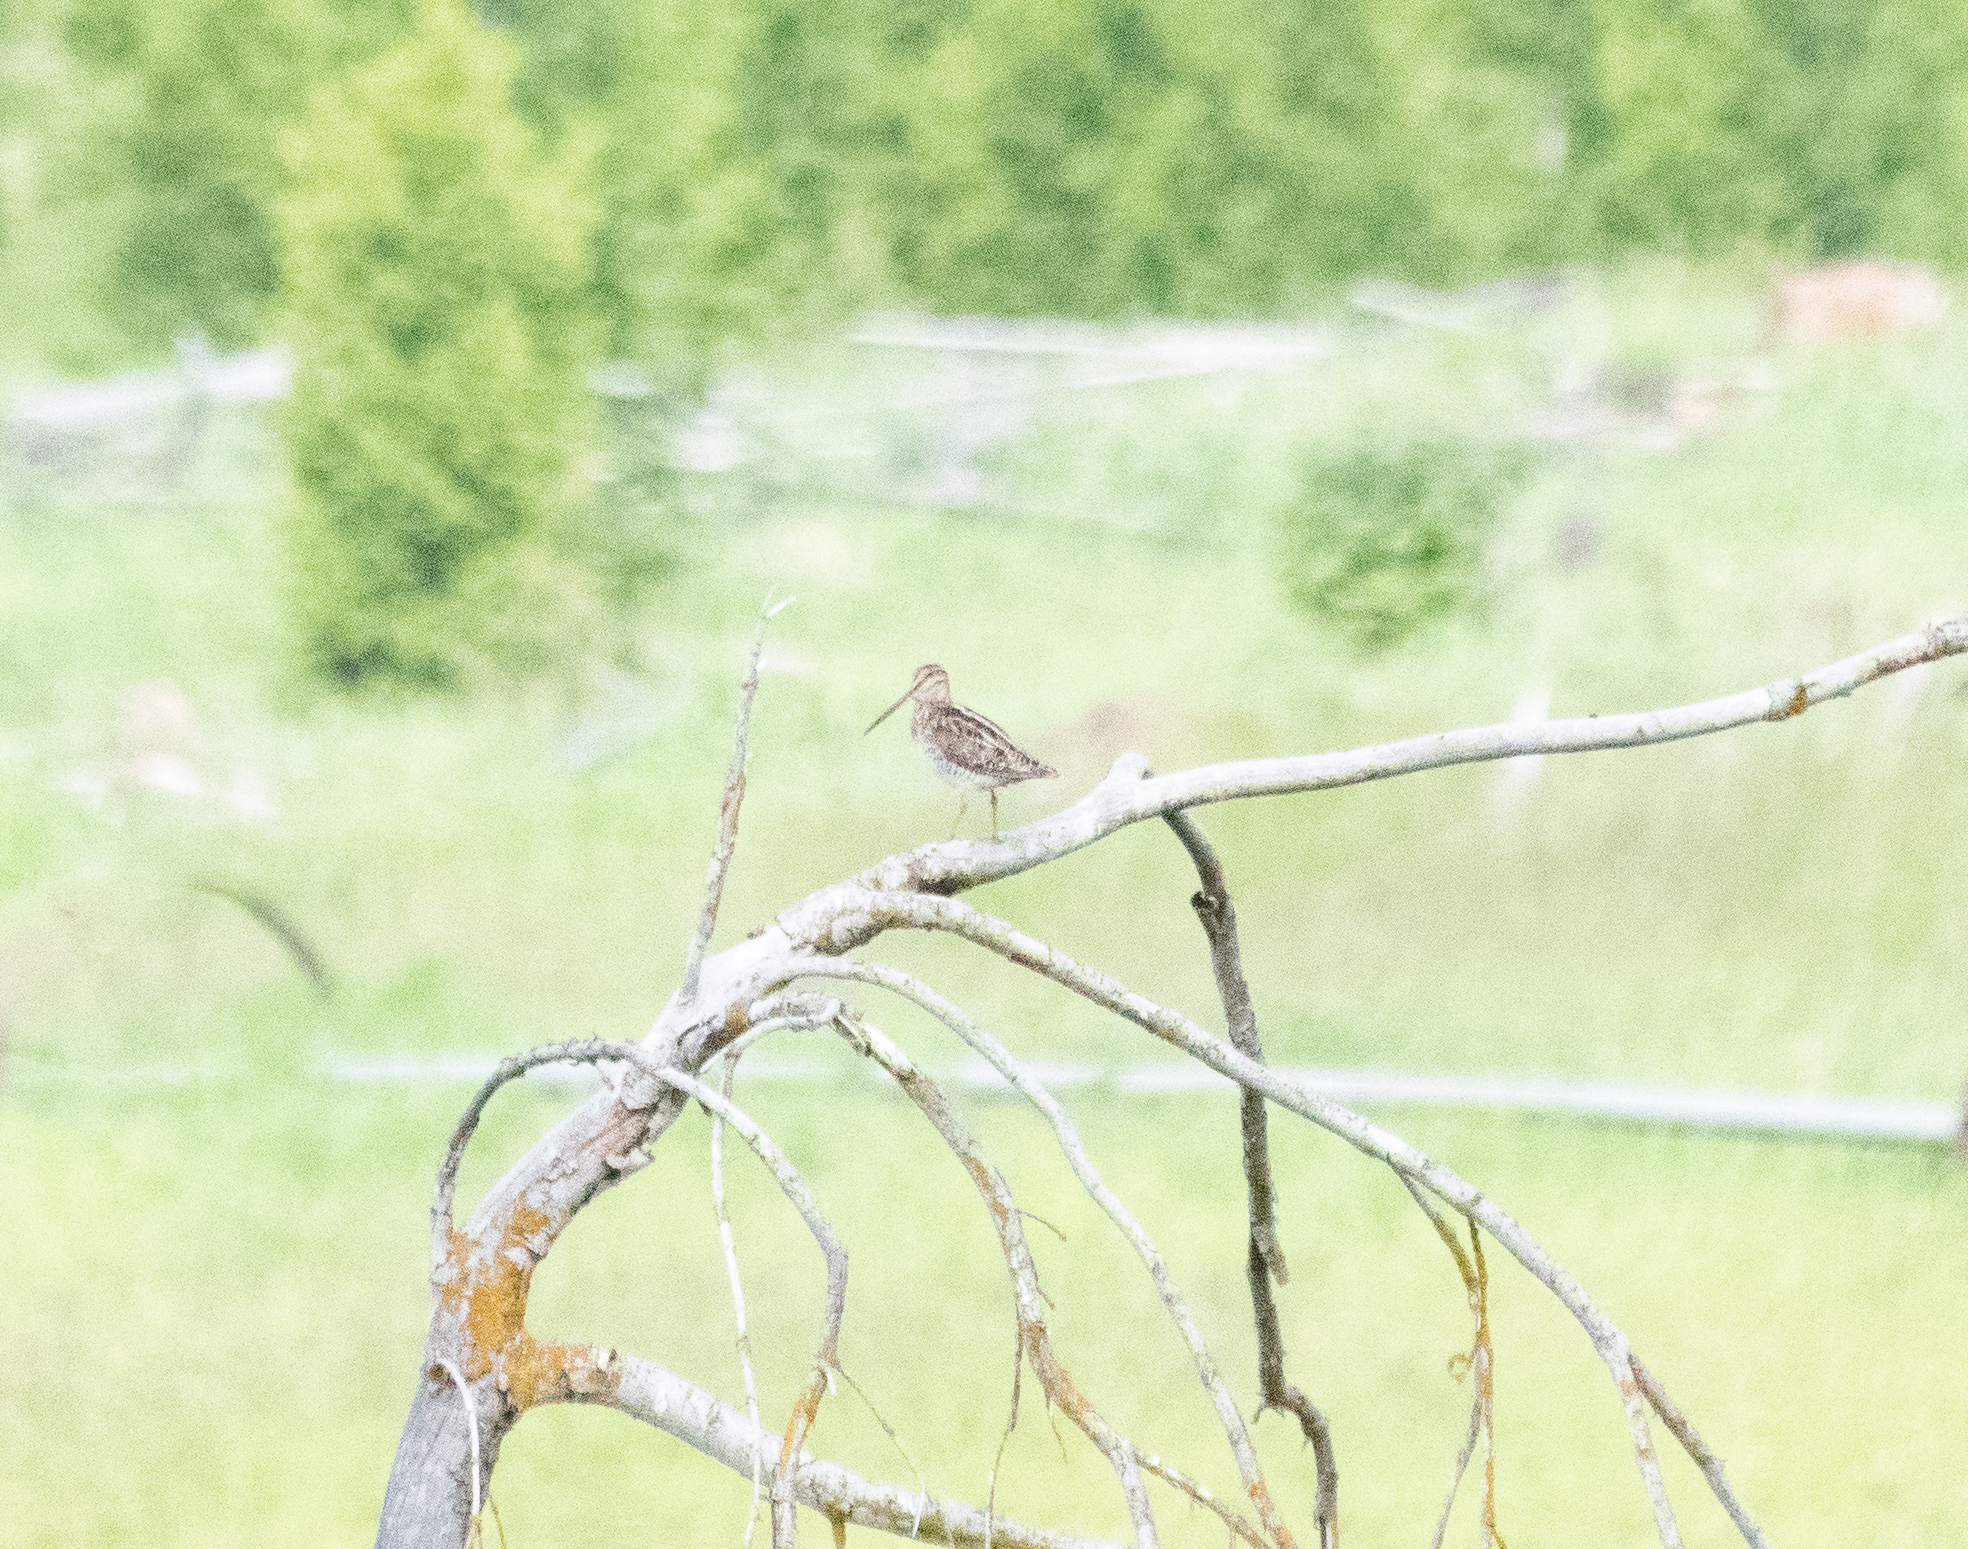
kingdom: Animalia
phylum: Chordata
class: Aves
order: Charadriiformes
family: Scolopacidae
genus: Gallinago
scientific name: Gallinago delicata
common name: Wilson's snipe
